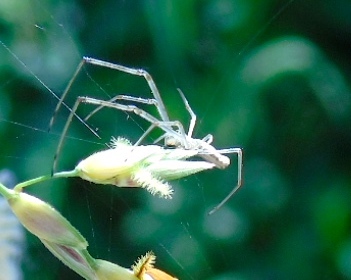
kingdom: Animalia
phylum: Arthropoda
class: Arachnida
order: Araneae
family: Tetragnathidae
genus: Tetragnatha
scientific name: Tetragnatha
